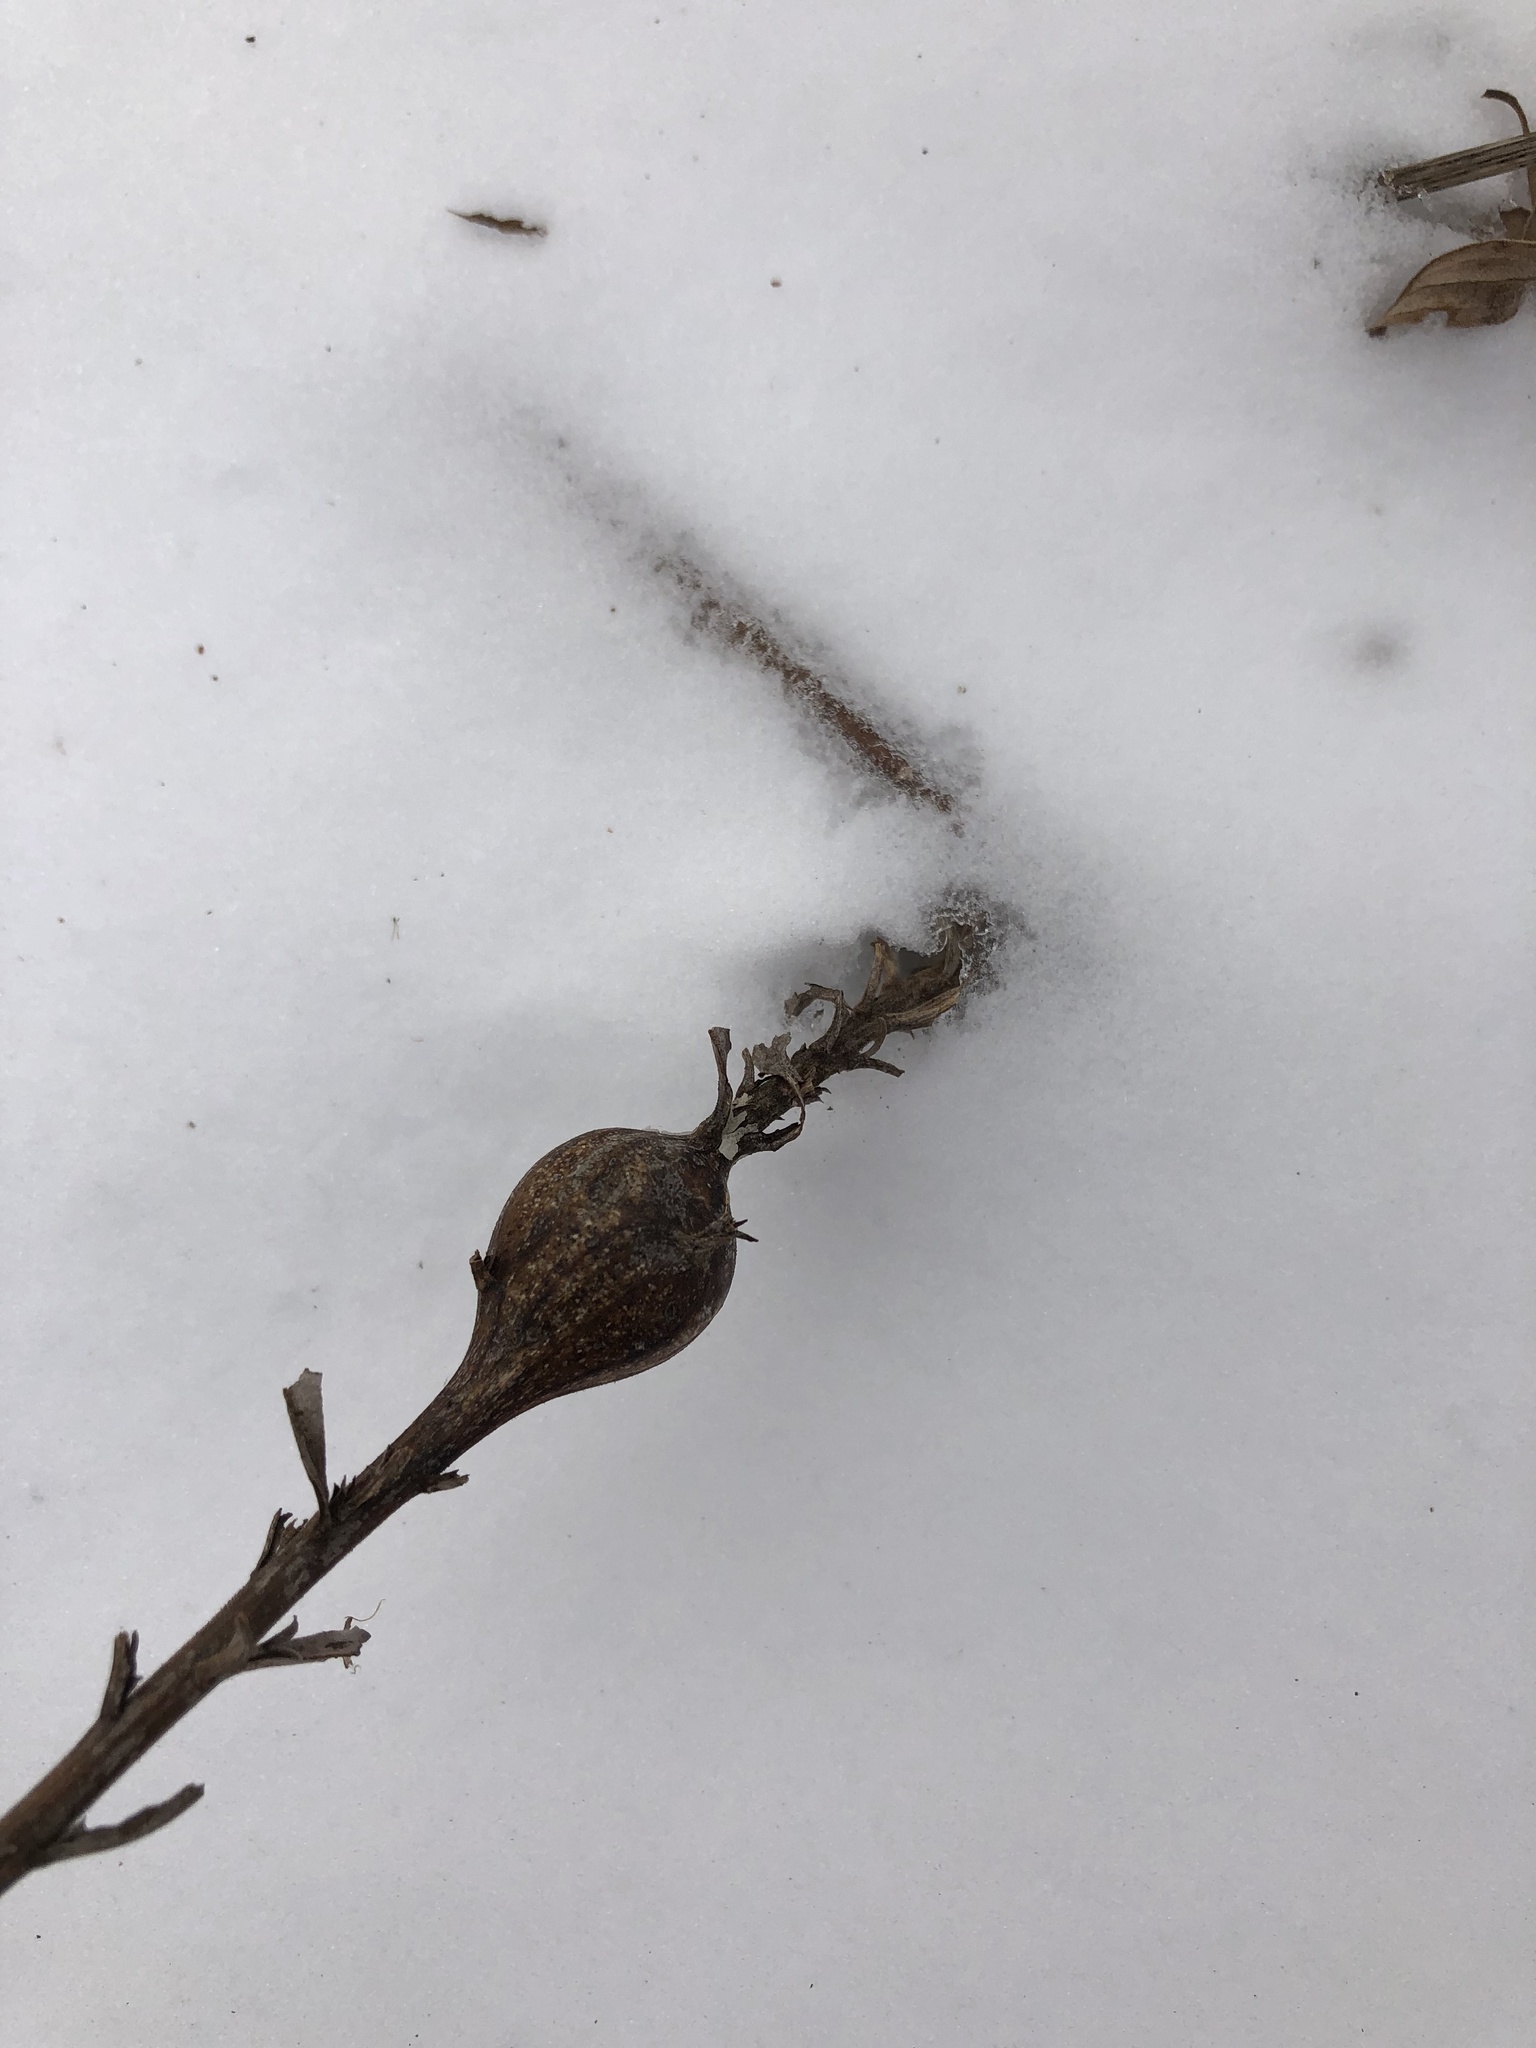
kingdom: Animalia
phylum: Arthropoda
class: Insecta
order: Diptera
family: Tephritidae
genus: Eurosta
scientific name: Eurosta solidaginis
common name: Goldenrod gall fly
